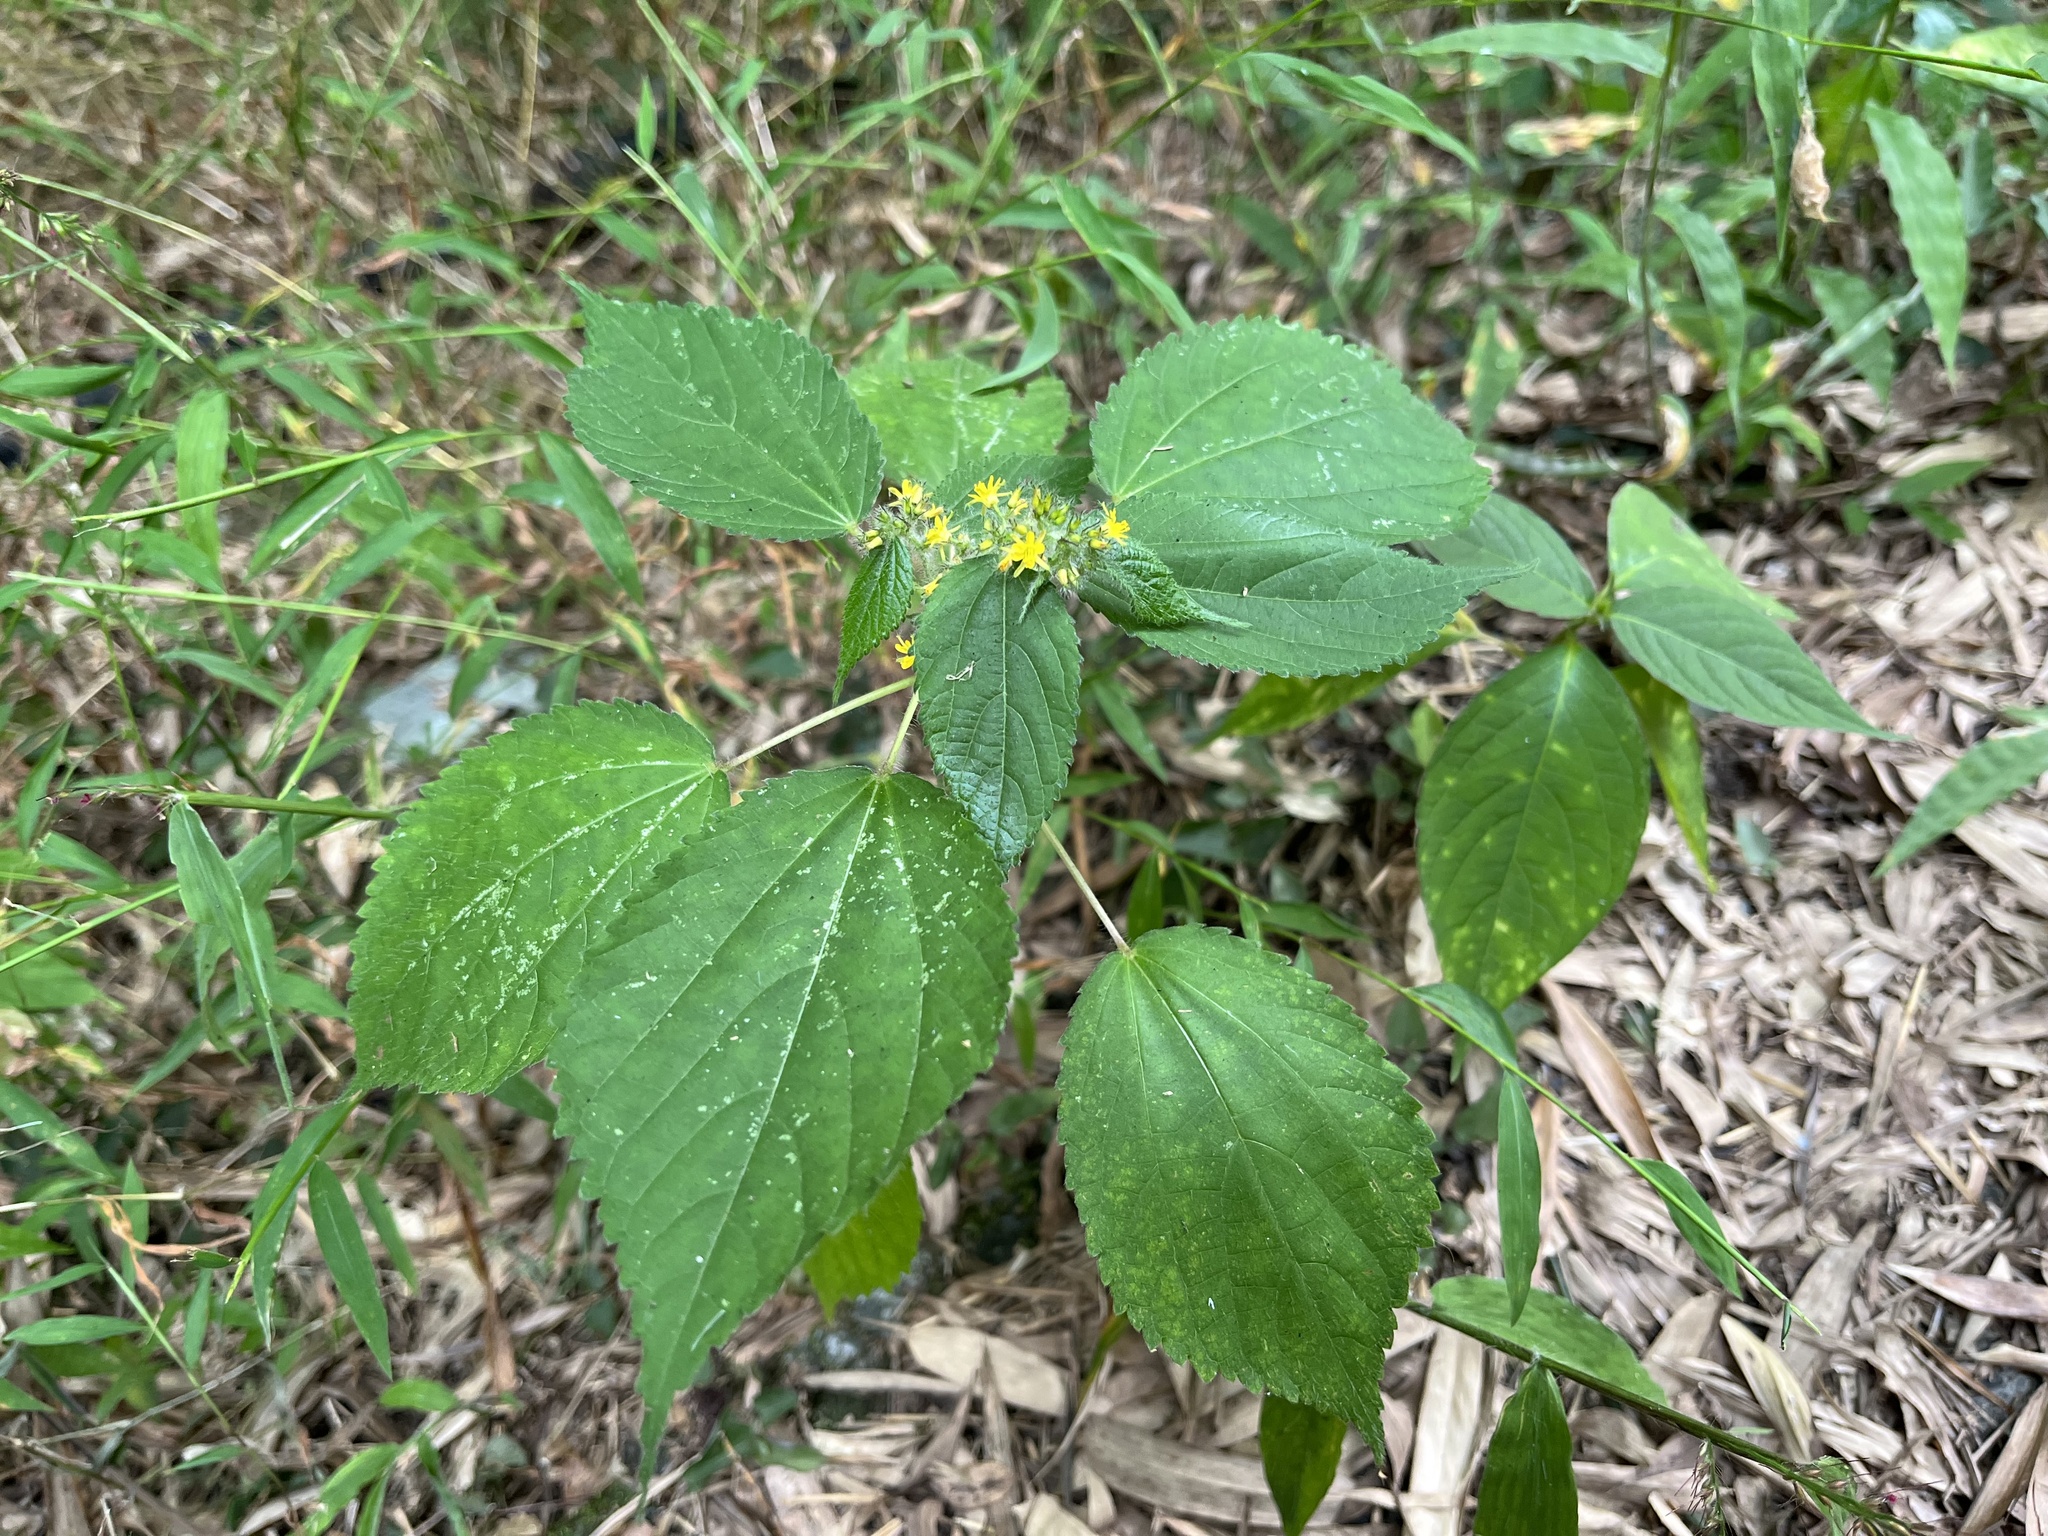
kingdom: Plantae
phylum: Tracheophyta
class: Magnoliopsida
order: Malvales
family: Malvaceae
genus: Triumfetta
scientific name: Triumfetta pilosa
